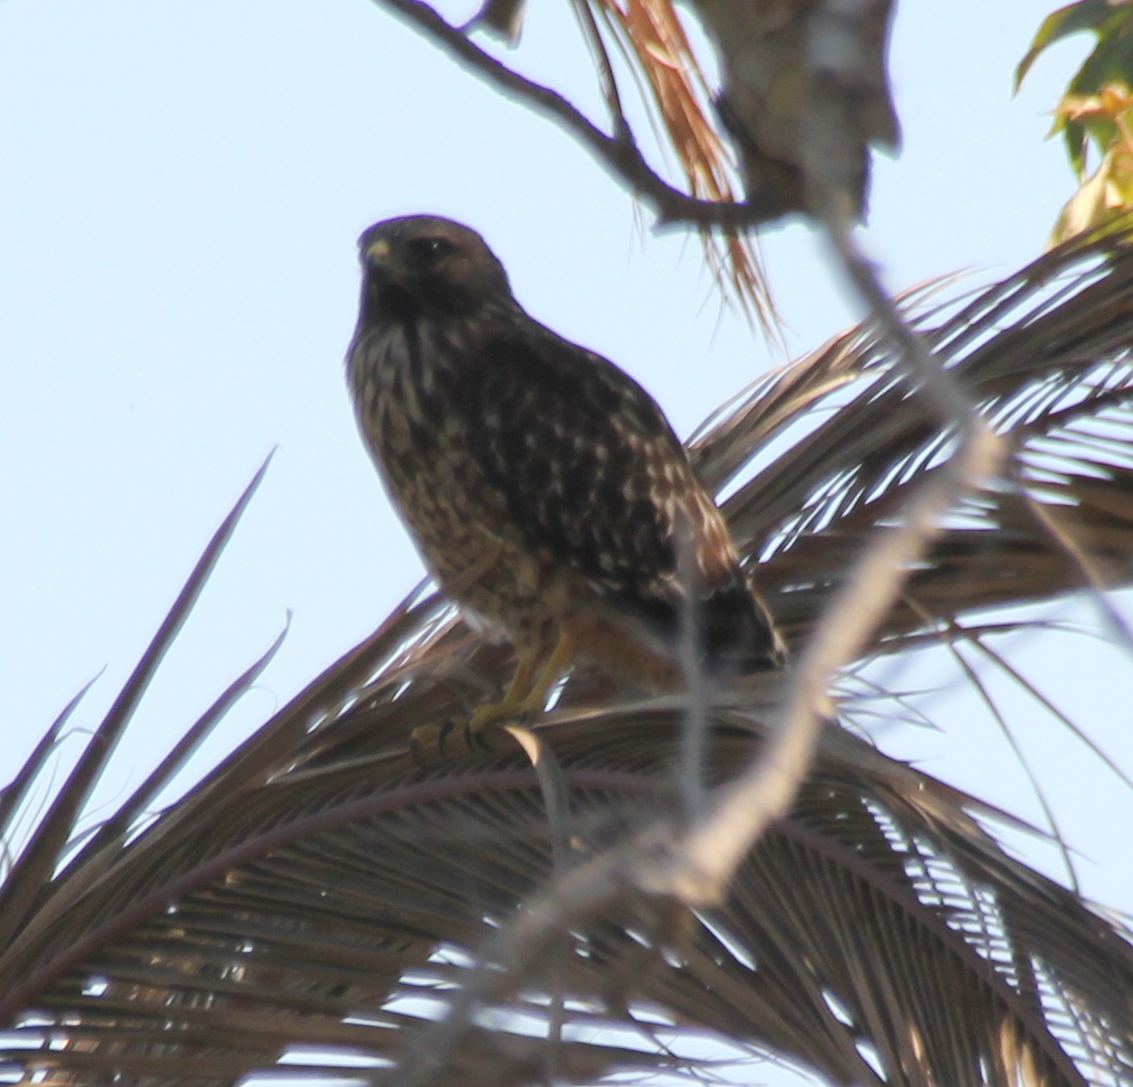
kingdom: Animalia
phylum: Chordata
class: Aves
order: Accipitriformes
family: Accipitridae
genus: Buteo
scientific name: Buteo lineatus
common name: Red-shouldered hawk
